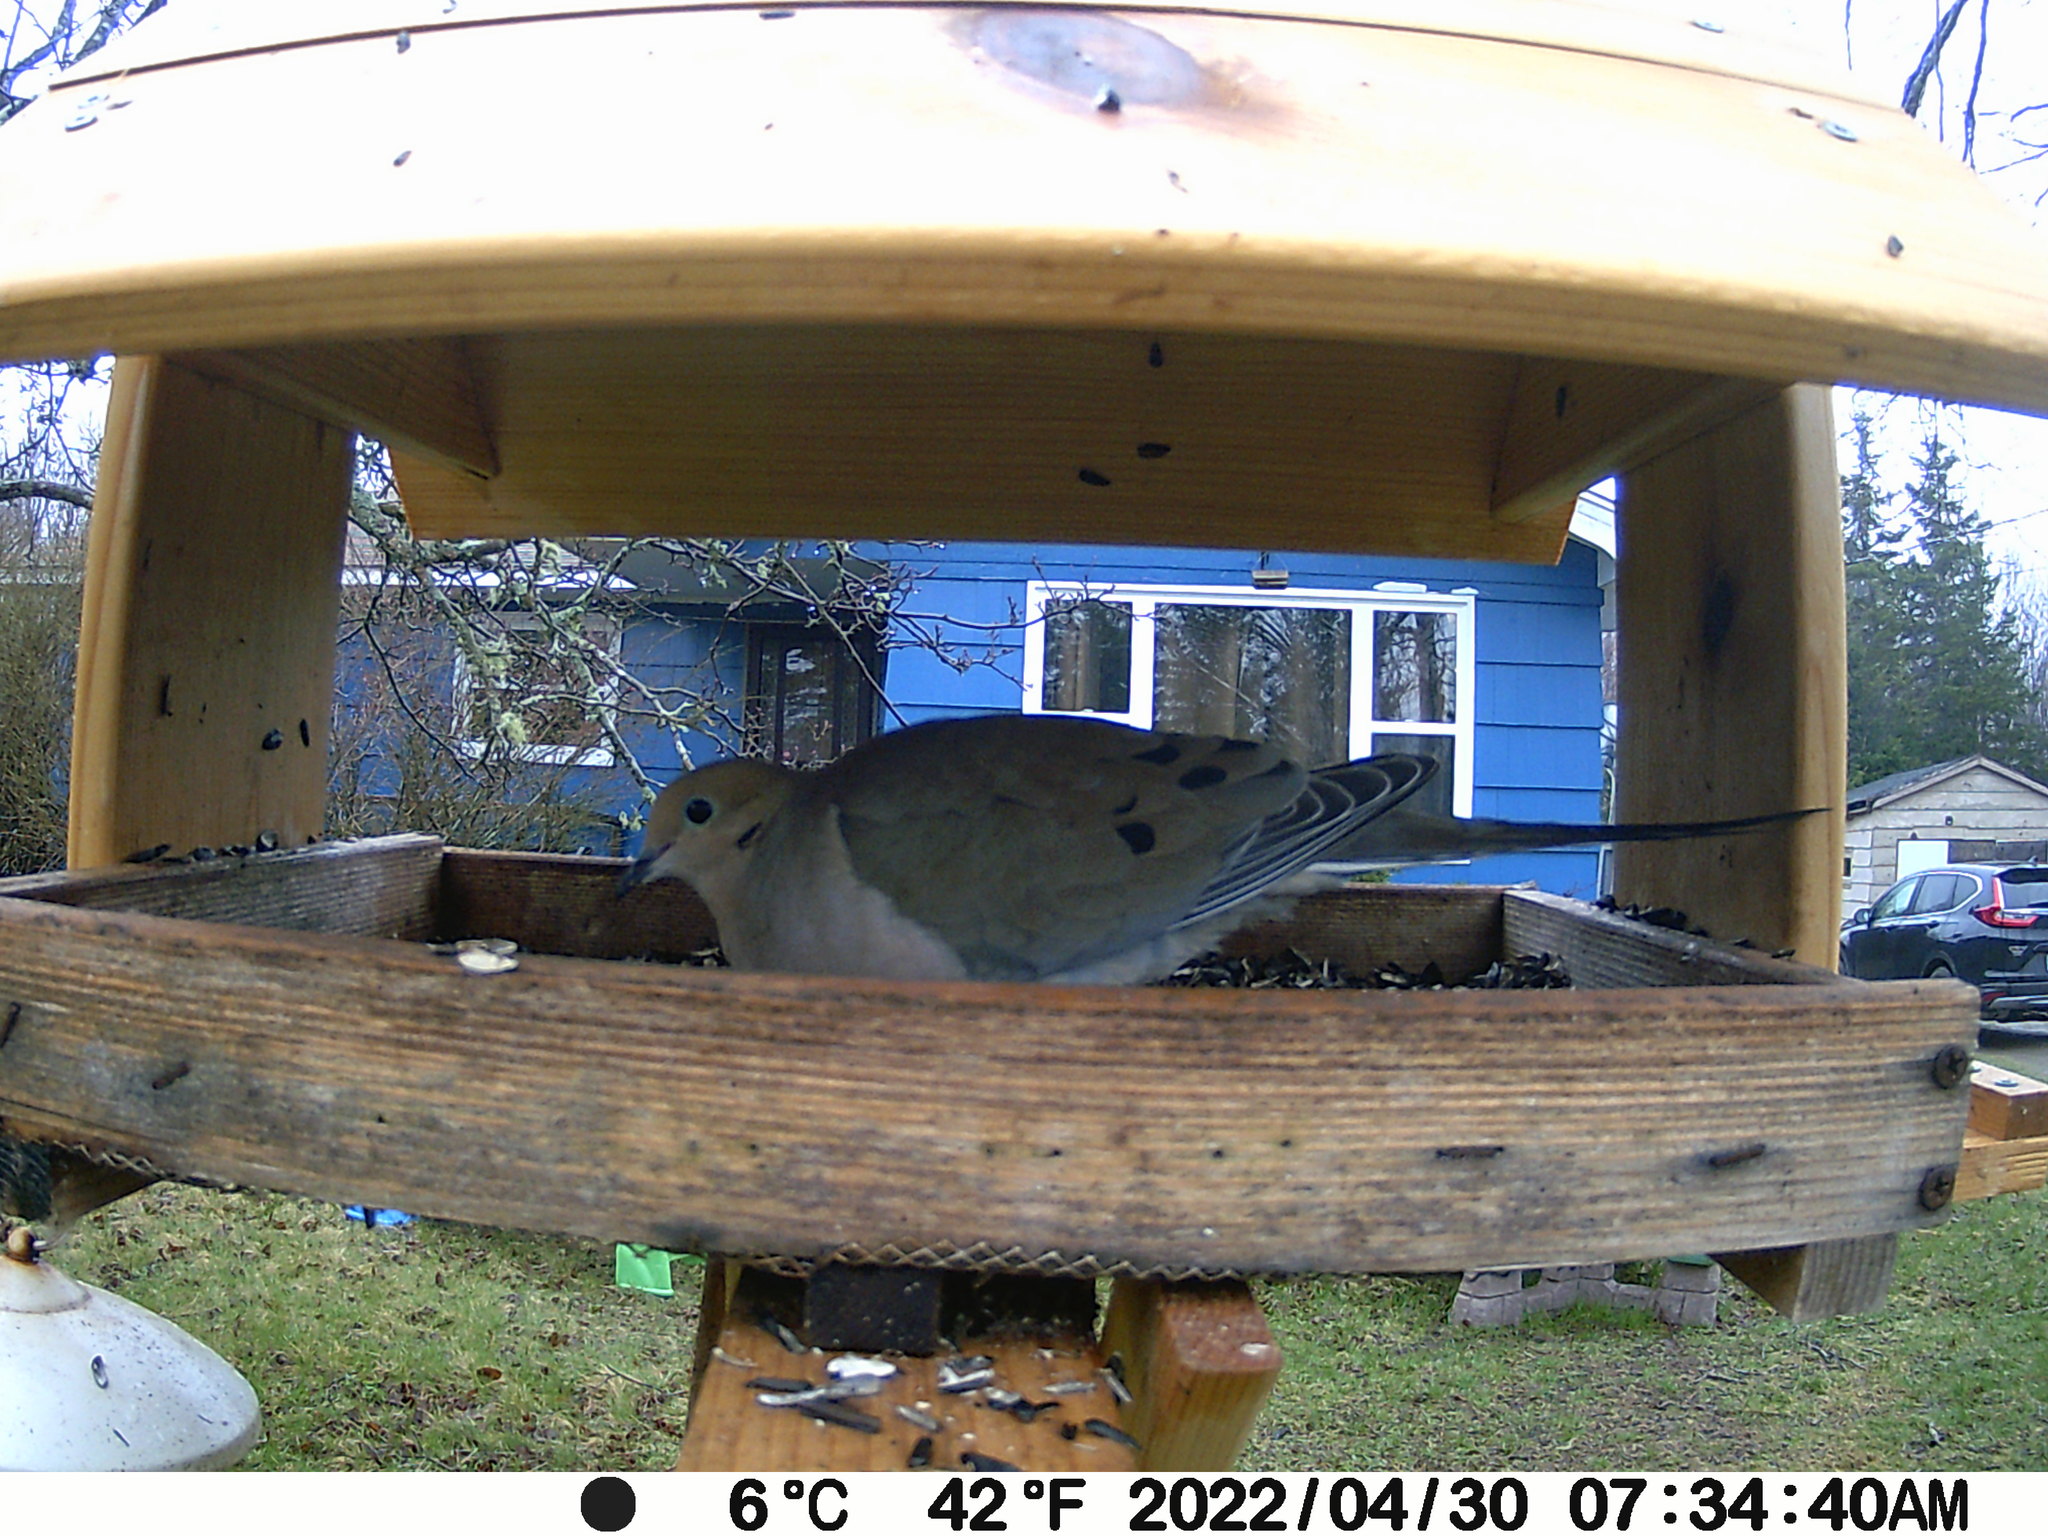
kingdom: Animalia
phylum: Chordata
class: Aves
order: Columbiformes
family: Columbidae
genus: Zenaida
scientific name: Zenaida macroura
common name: Mourning dove
